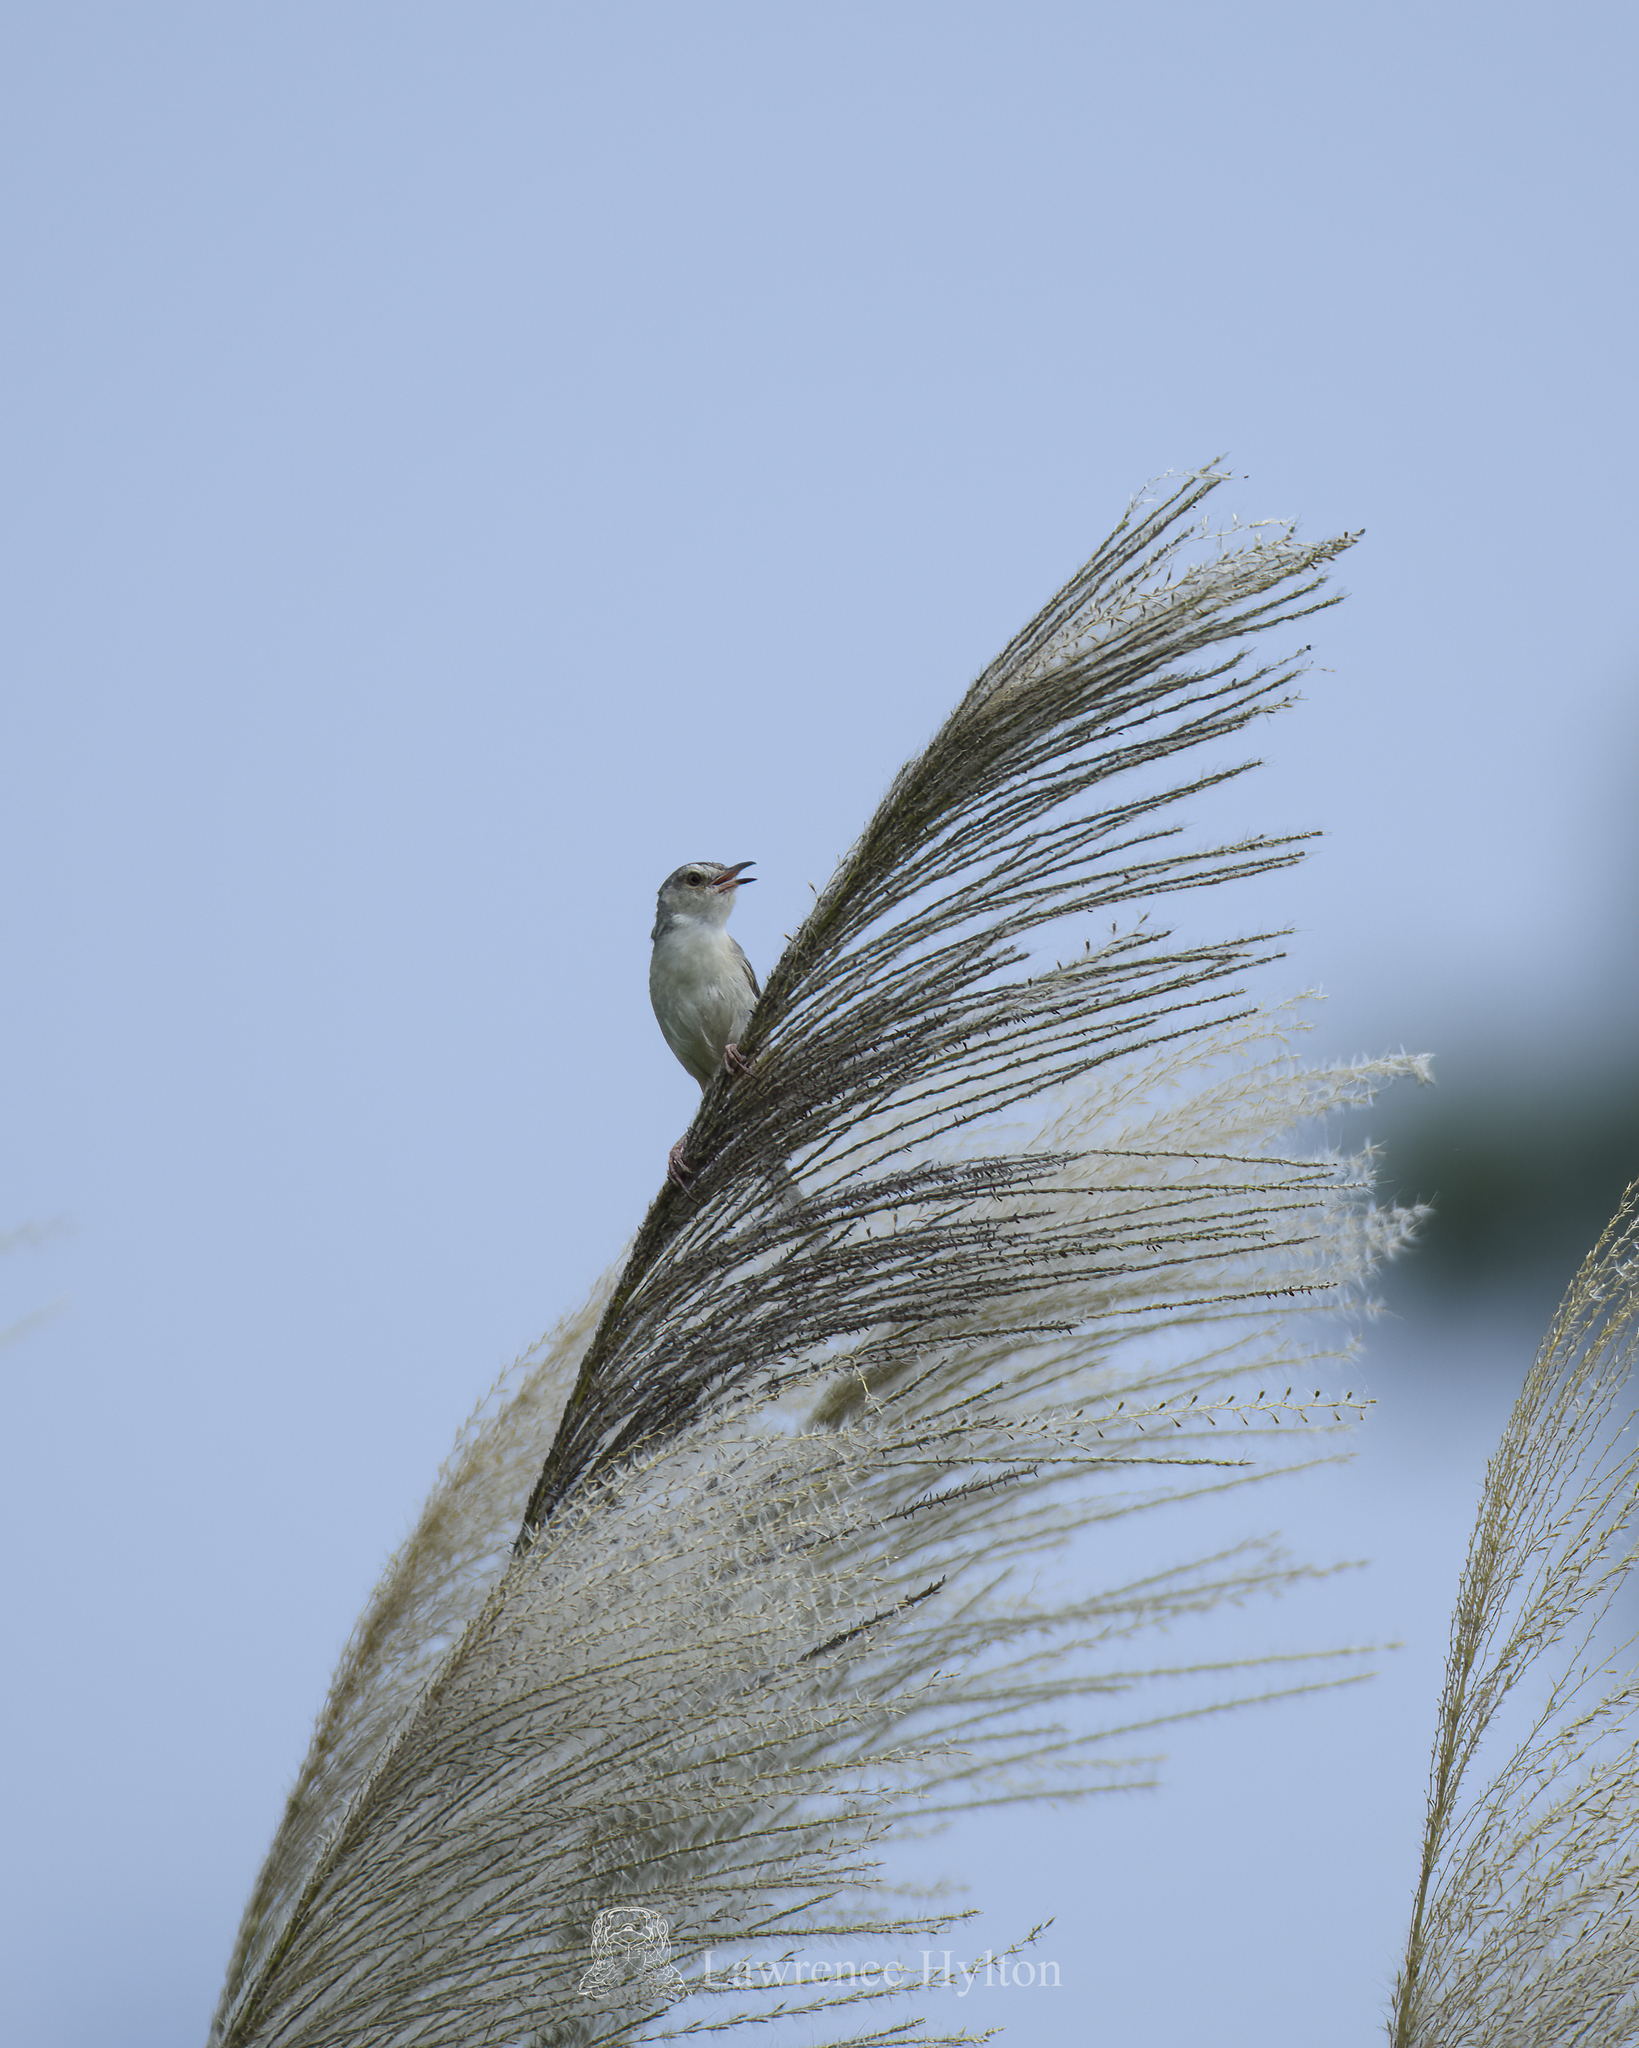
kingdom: Animalia
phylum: Chordata
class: Aves
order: Passeriformes
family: Cisticolidae
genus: Prinia
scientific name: Prinia inornata
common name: Plain prinia
